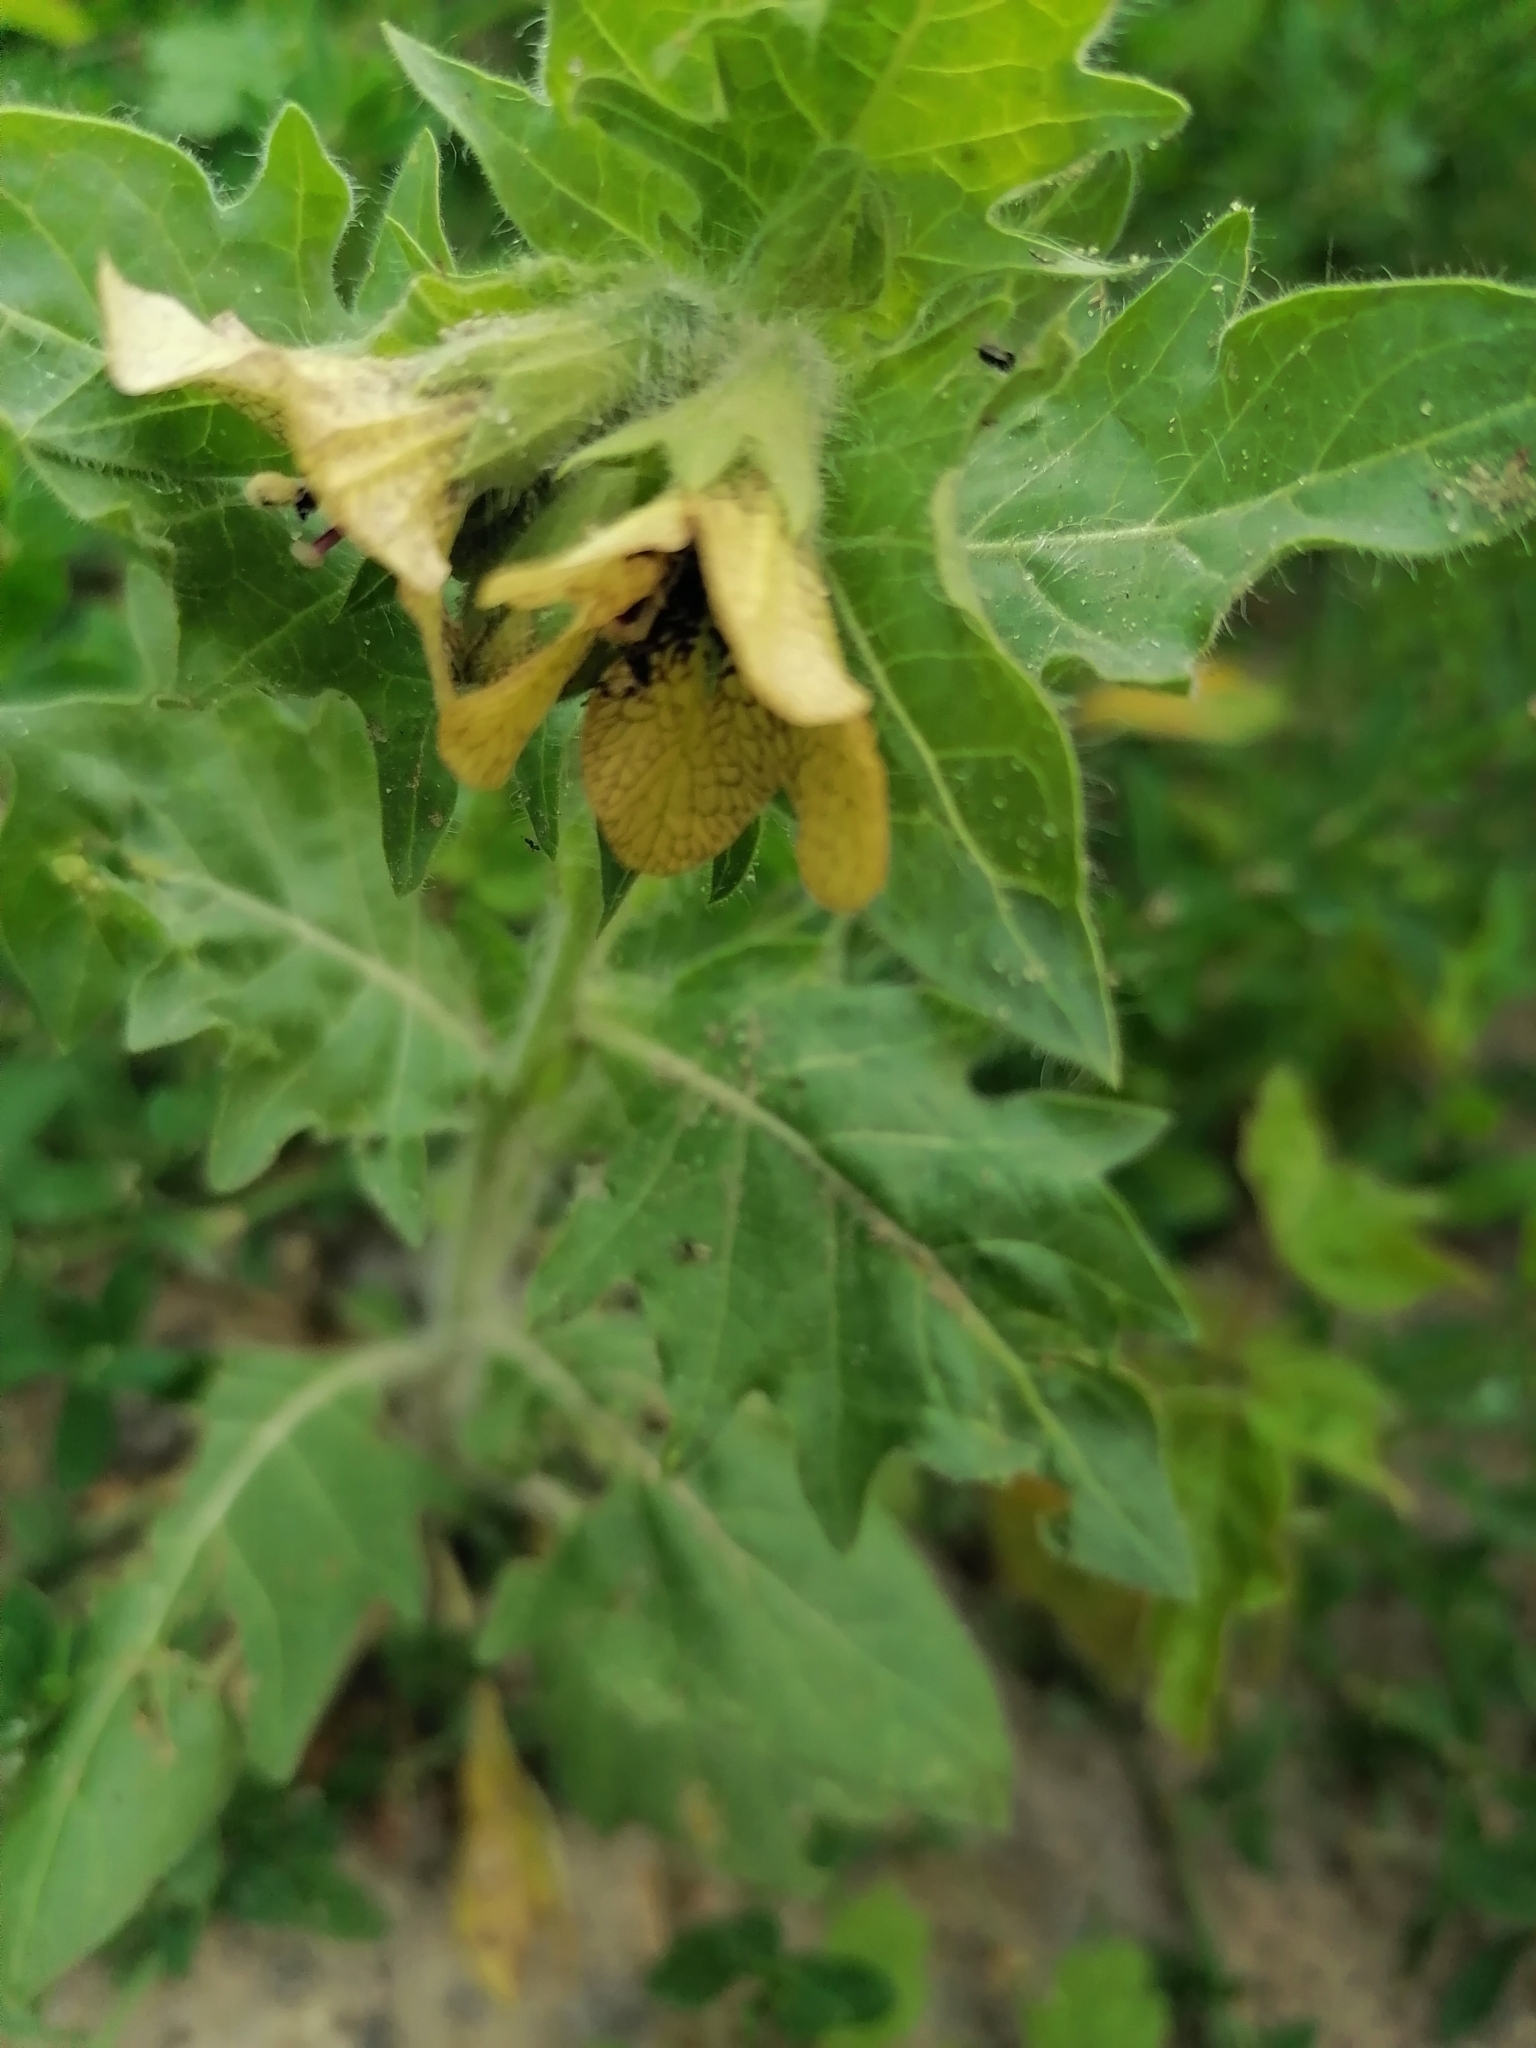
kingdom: Plantae
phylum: Tracheophyta
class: Magnoliopsida
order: Solanales
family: Solanaceae
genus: Hyoscyamus
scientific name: Hyoscyamus niger
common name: Henbane
